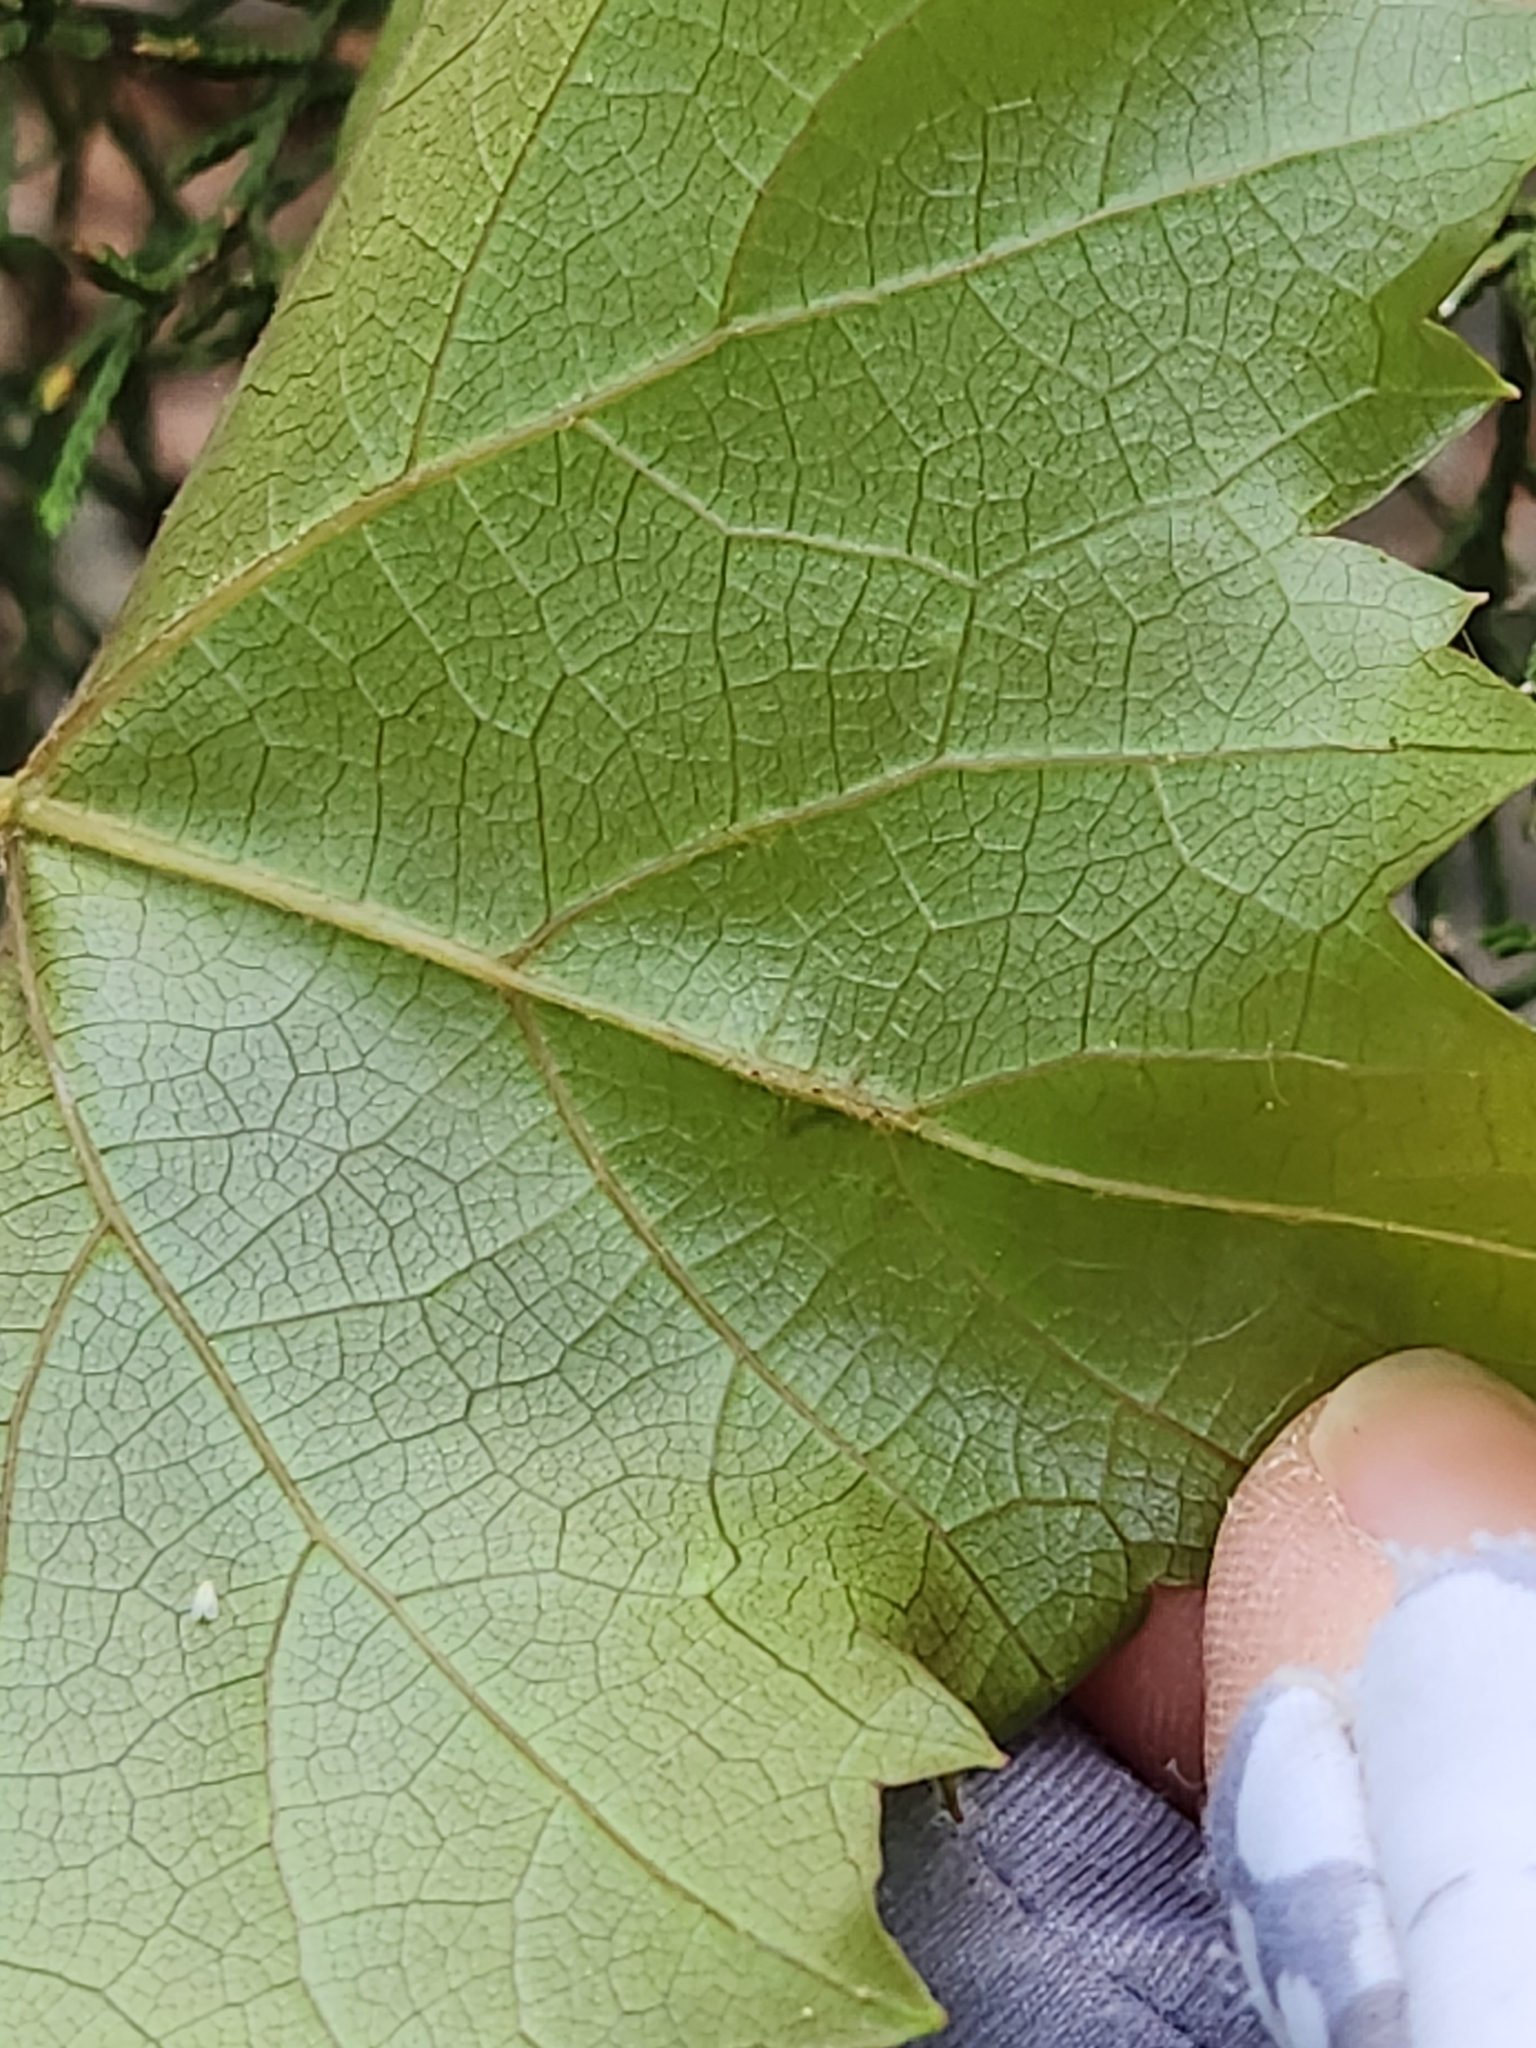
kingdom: Plantae
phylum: Tracheophyta
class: Magnoliopsida
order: Vitales
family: Vitaceae
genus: Vitis
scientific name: Vitis monticola
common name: Mountain grape
